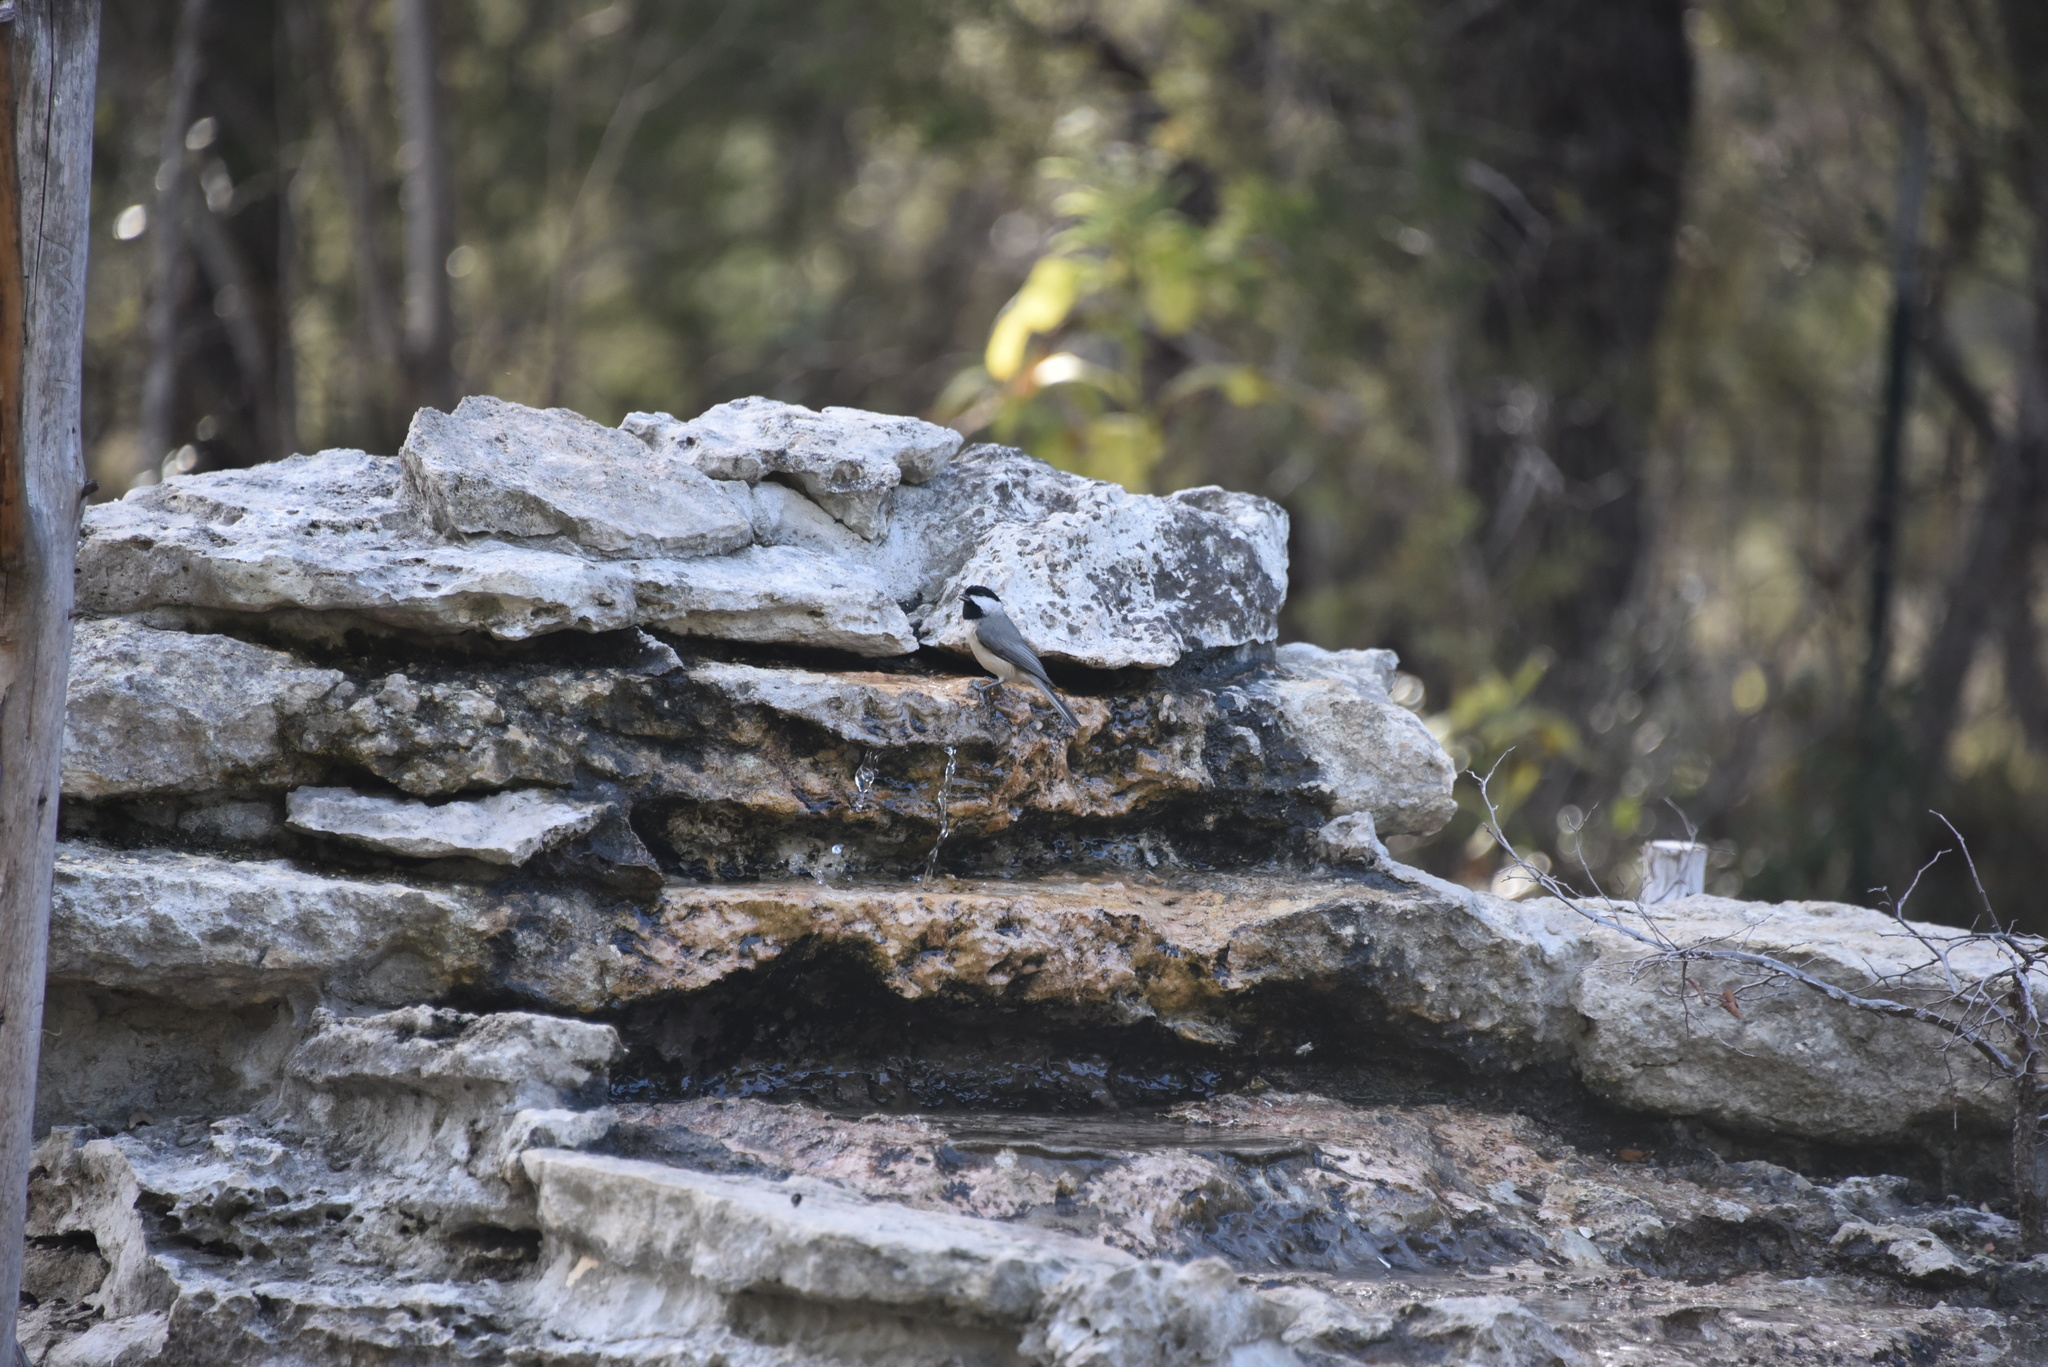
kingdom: Animalia
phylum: Chordata
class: Aves
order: Passeriformes
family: Paridae
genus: Poecile
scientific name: Poecile carolinensis
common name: Carolina chickadee
